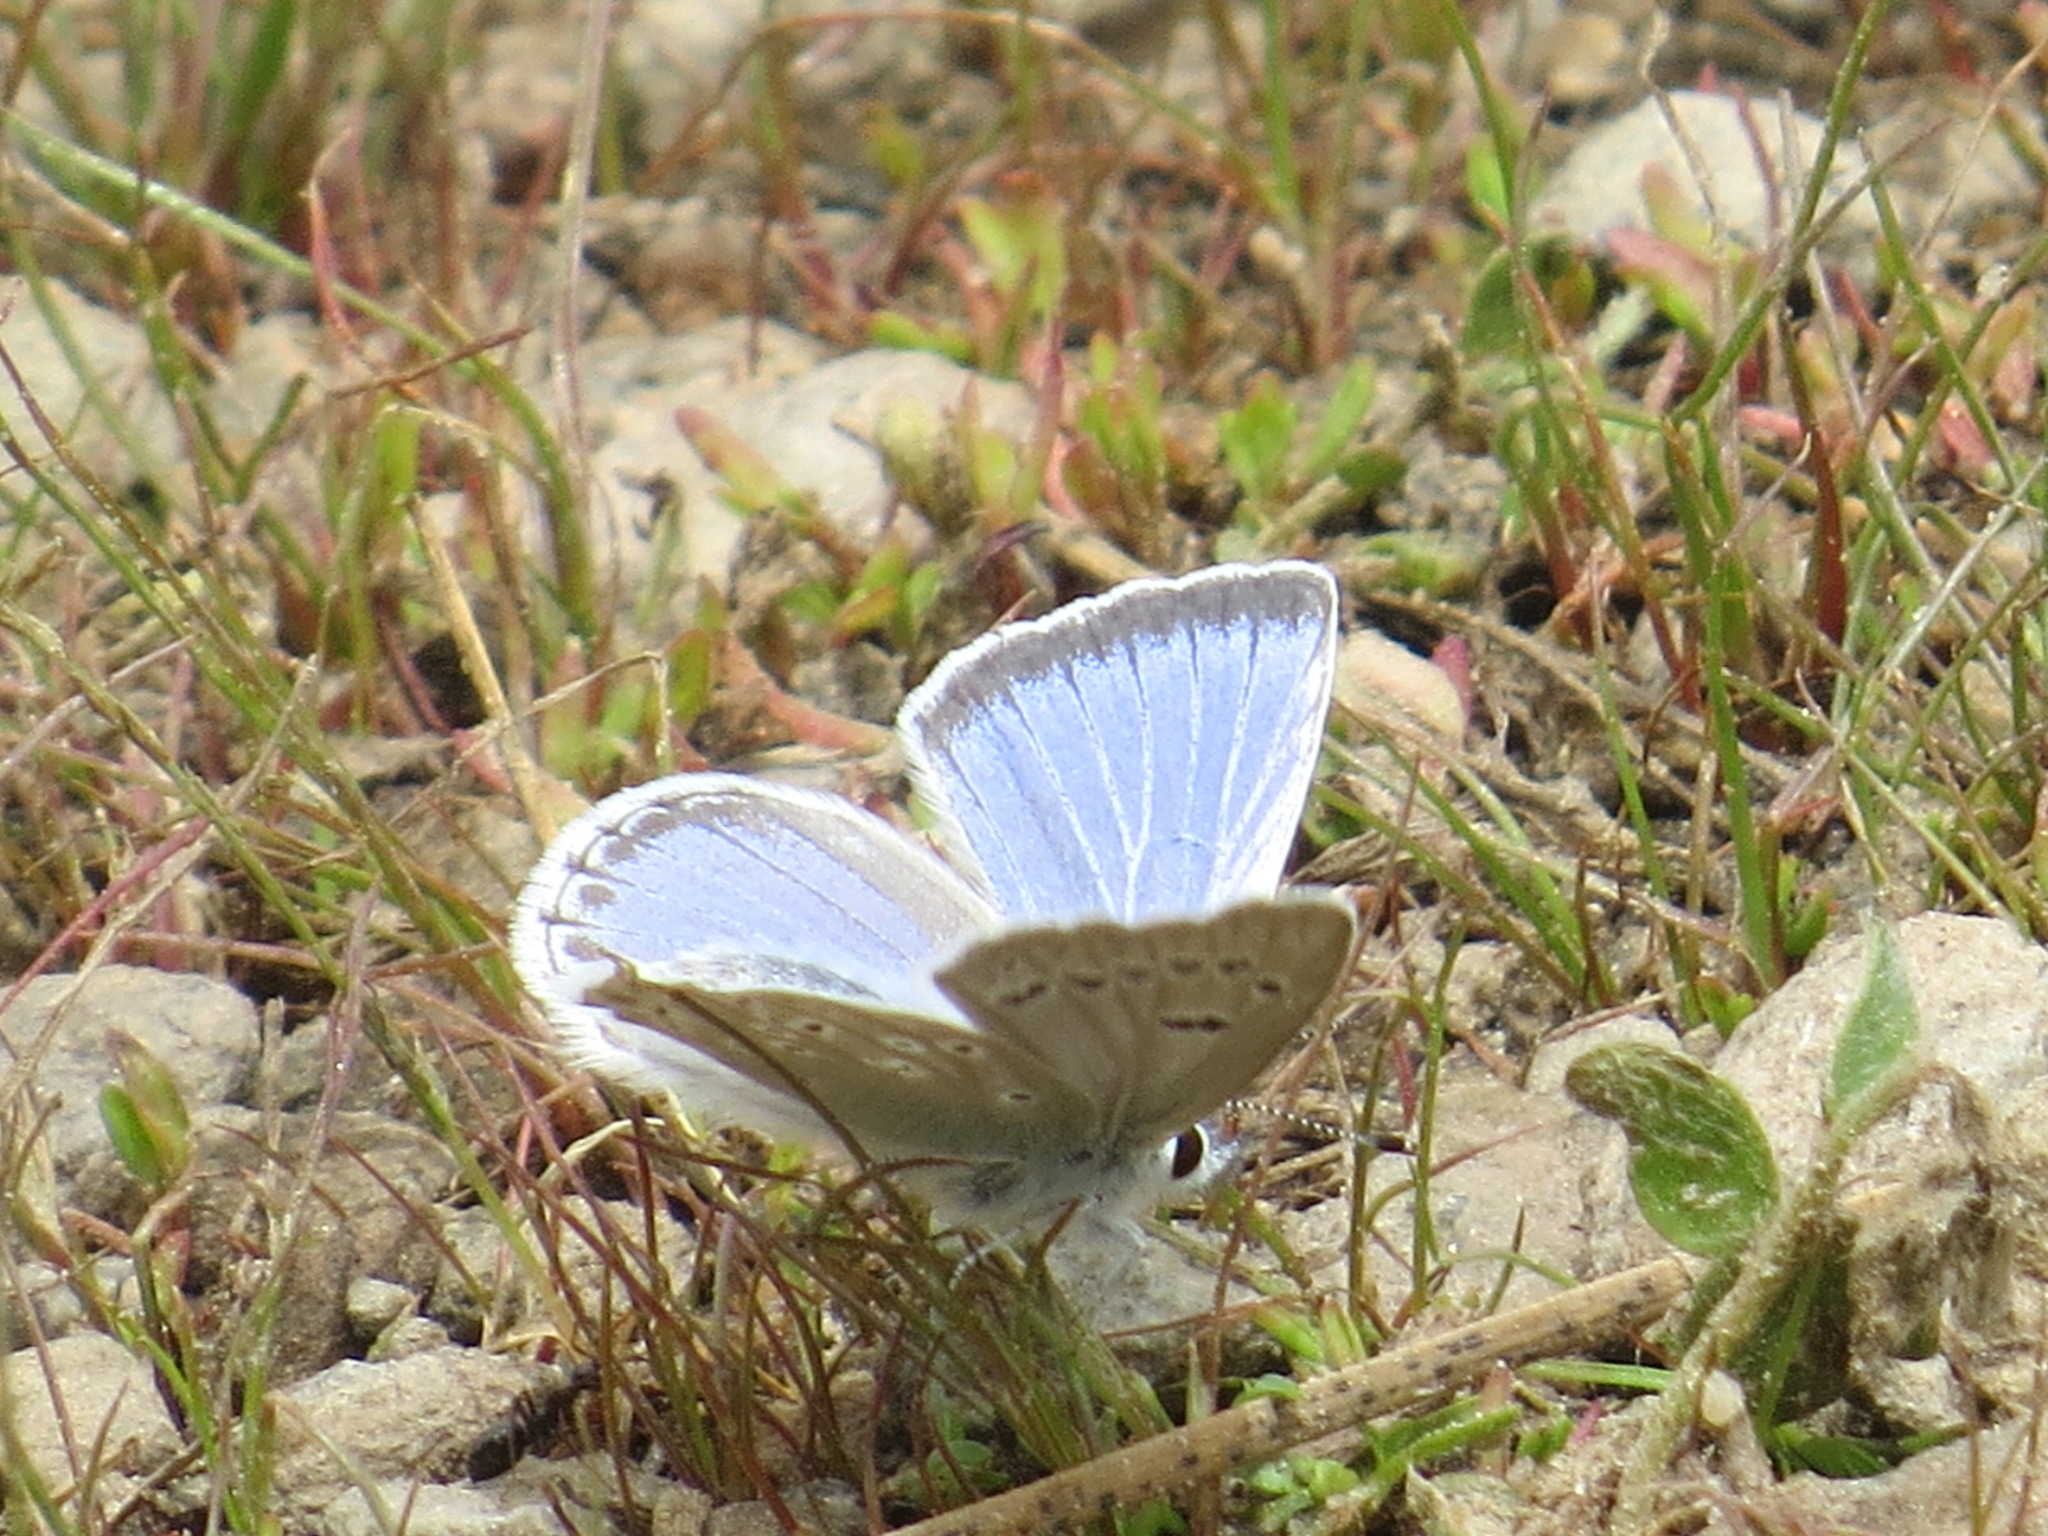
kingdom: Animalia
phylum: Arthropoda
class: Insecta
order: Lepidoptera
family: Lycaenidae
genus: Icaricia
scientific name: Icaricia icarioides
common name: Boisduval's blue
